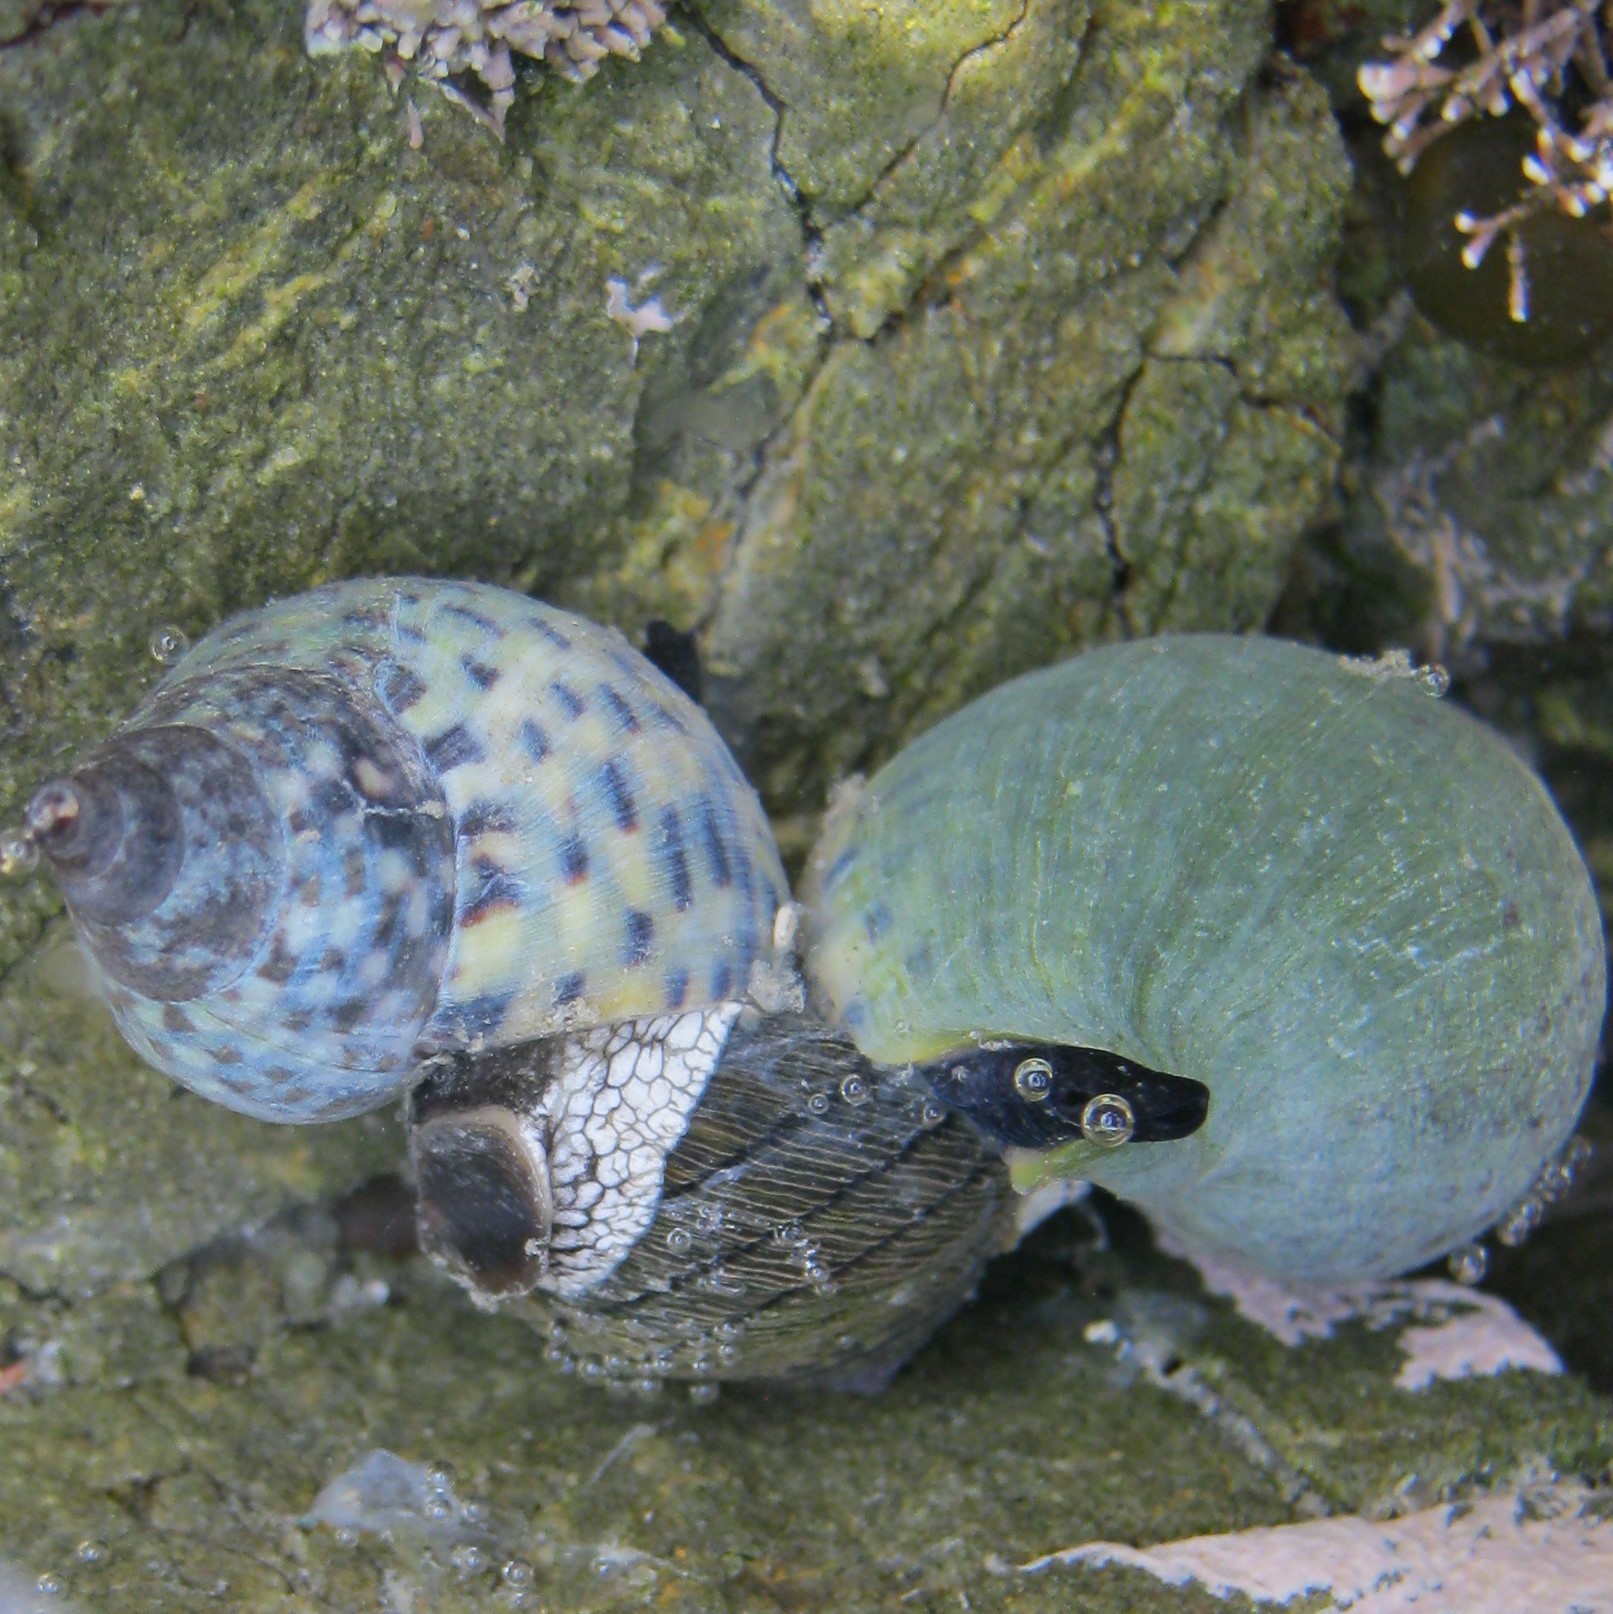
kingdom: Animalia
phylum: Mollusca
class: Gastropoda
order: Neogastropoda
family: Cominellidae
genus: Cominella
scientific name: Cominella maculosa
